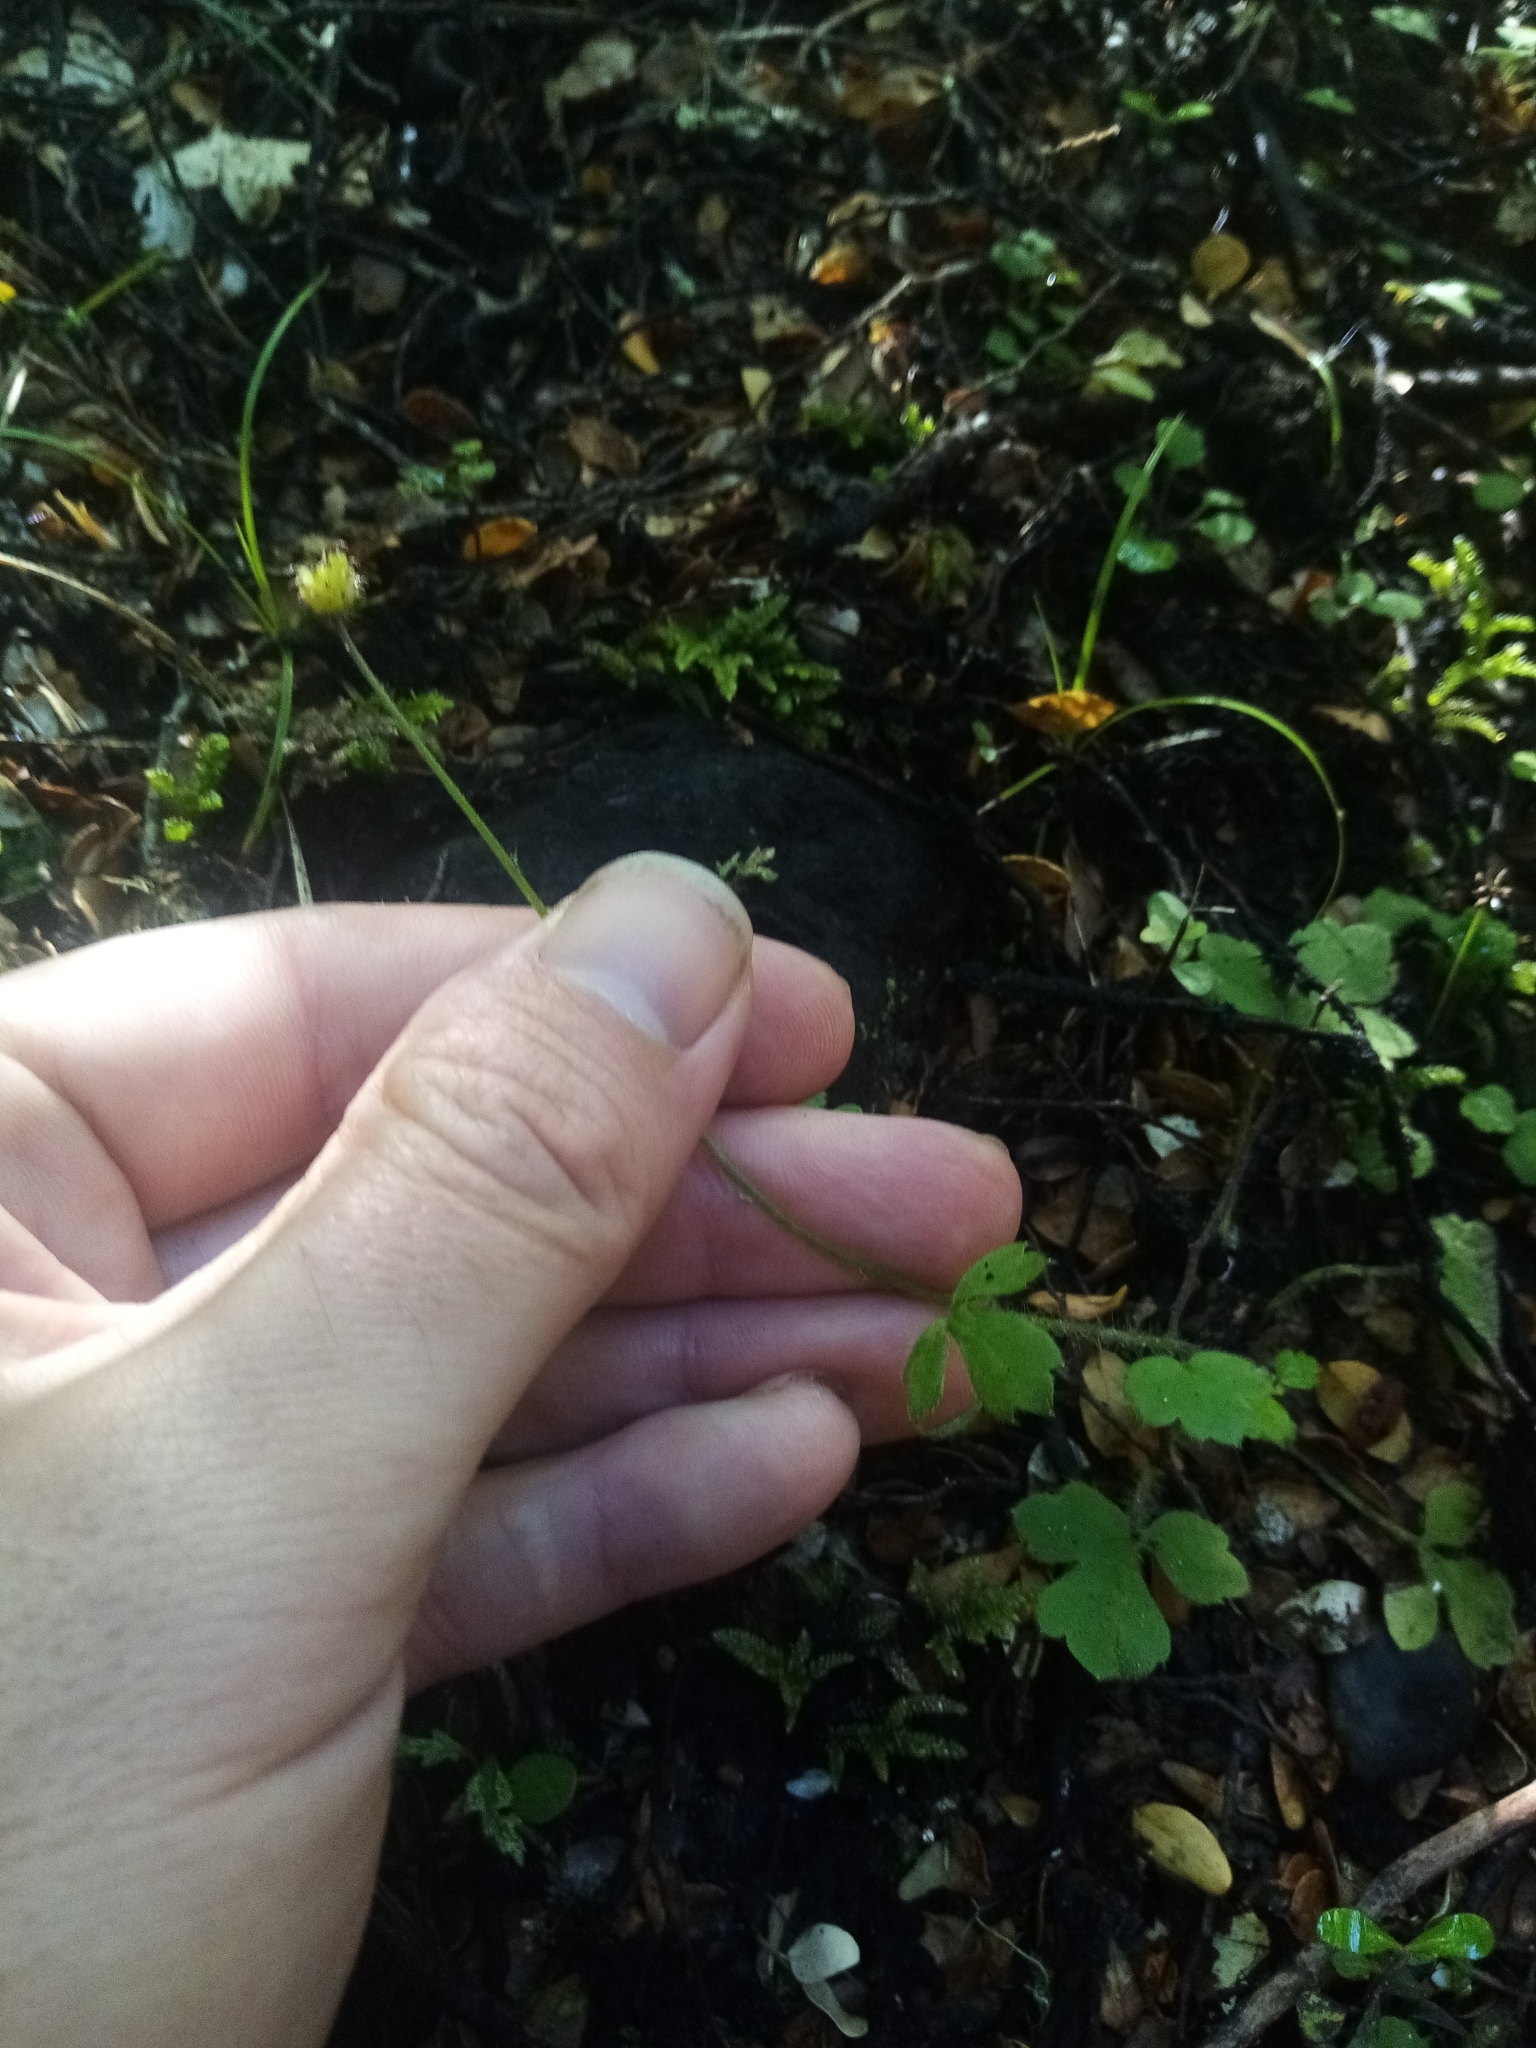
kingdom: Plantae
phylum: Tracheophyta
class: Magnoliopsida
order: Ranunculales
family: Ranunculaceae
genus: Ranunculus
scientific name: Ranunculus reflexus
